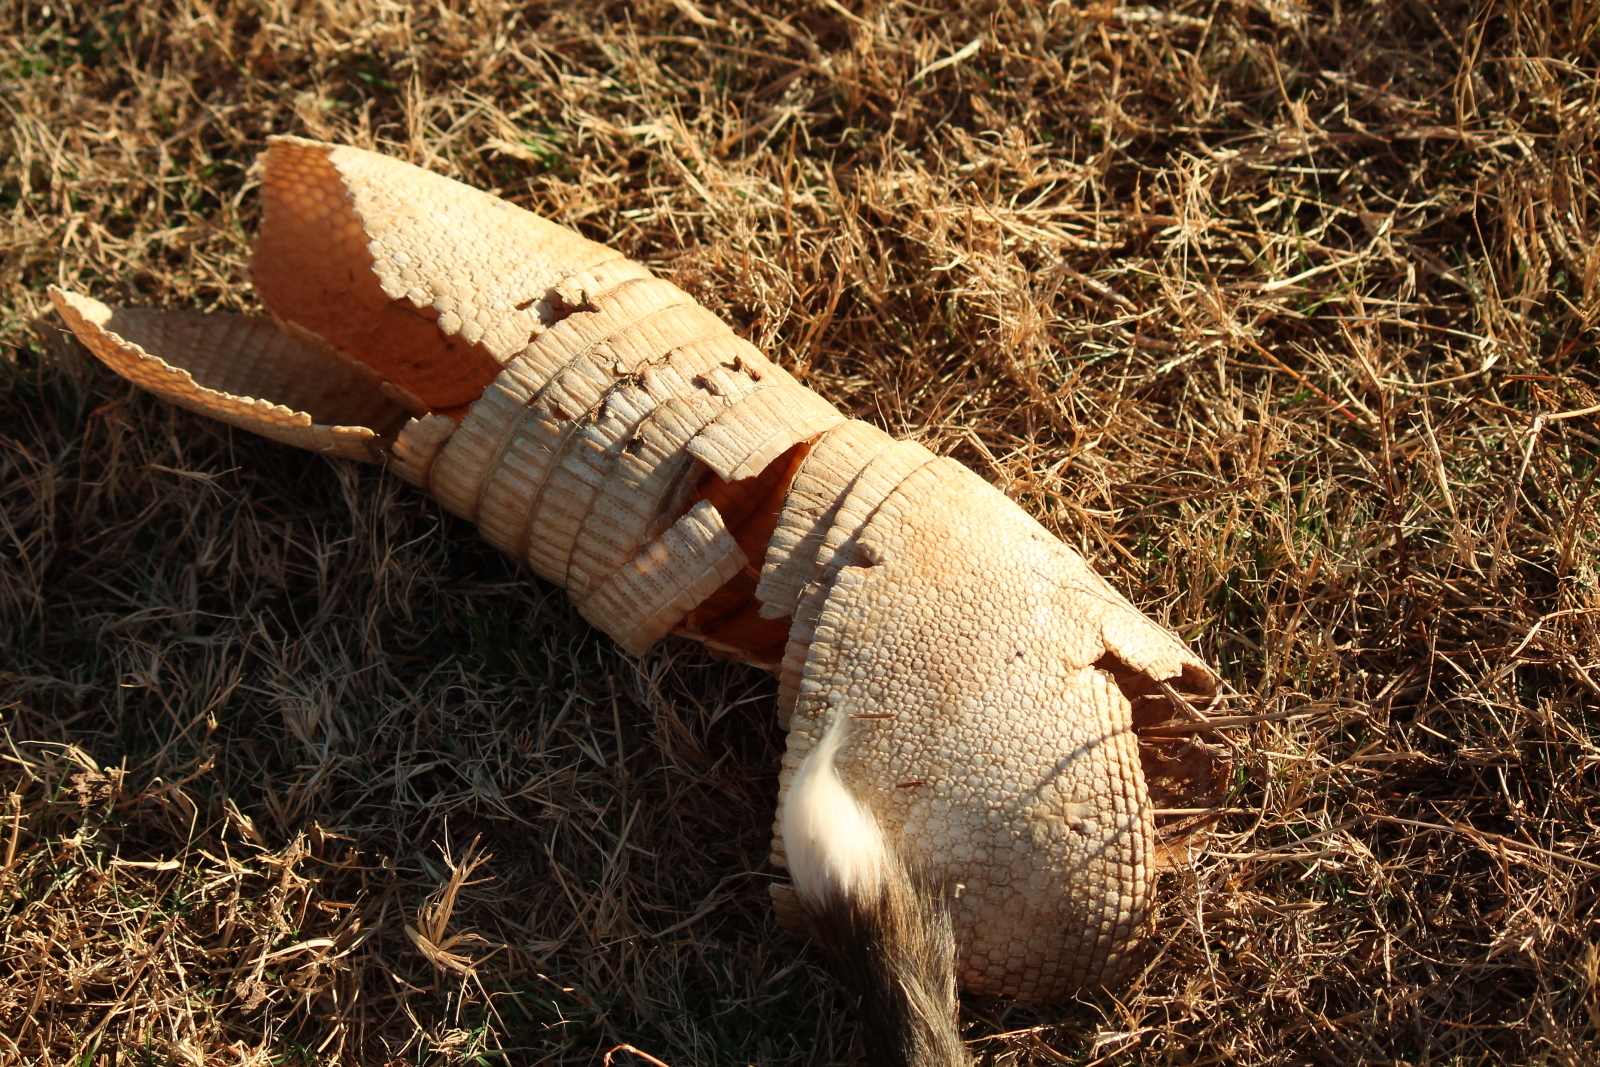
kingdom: Animalia
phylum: Chordata
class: Mammalia
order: Cingulata
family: Dasypodidae
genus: Dasypus
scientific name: Dasypus novemcinctus
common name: Nine-banded armadillo
